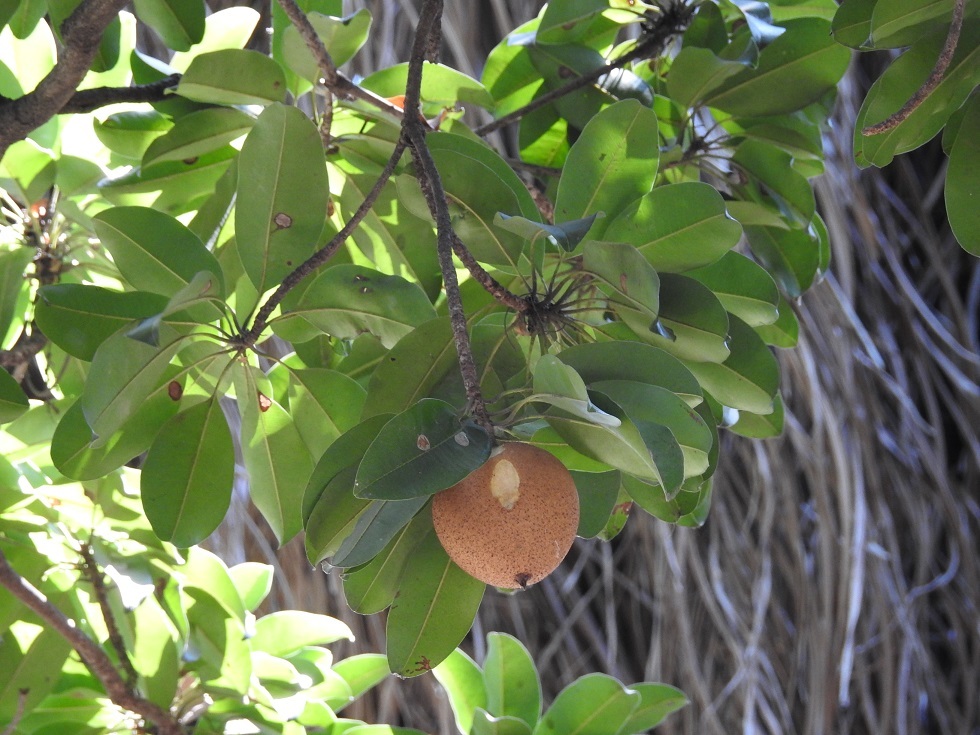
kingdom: Plantae
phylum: Tracheophyta
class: Magnoliopsida
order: Ericales
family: Sapotaceae
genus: Manilkara
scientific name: Manilkara zapota
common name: Sapodilla
